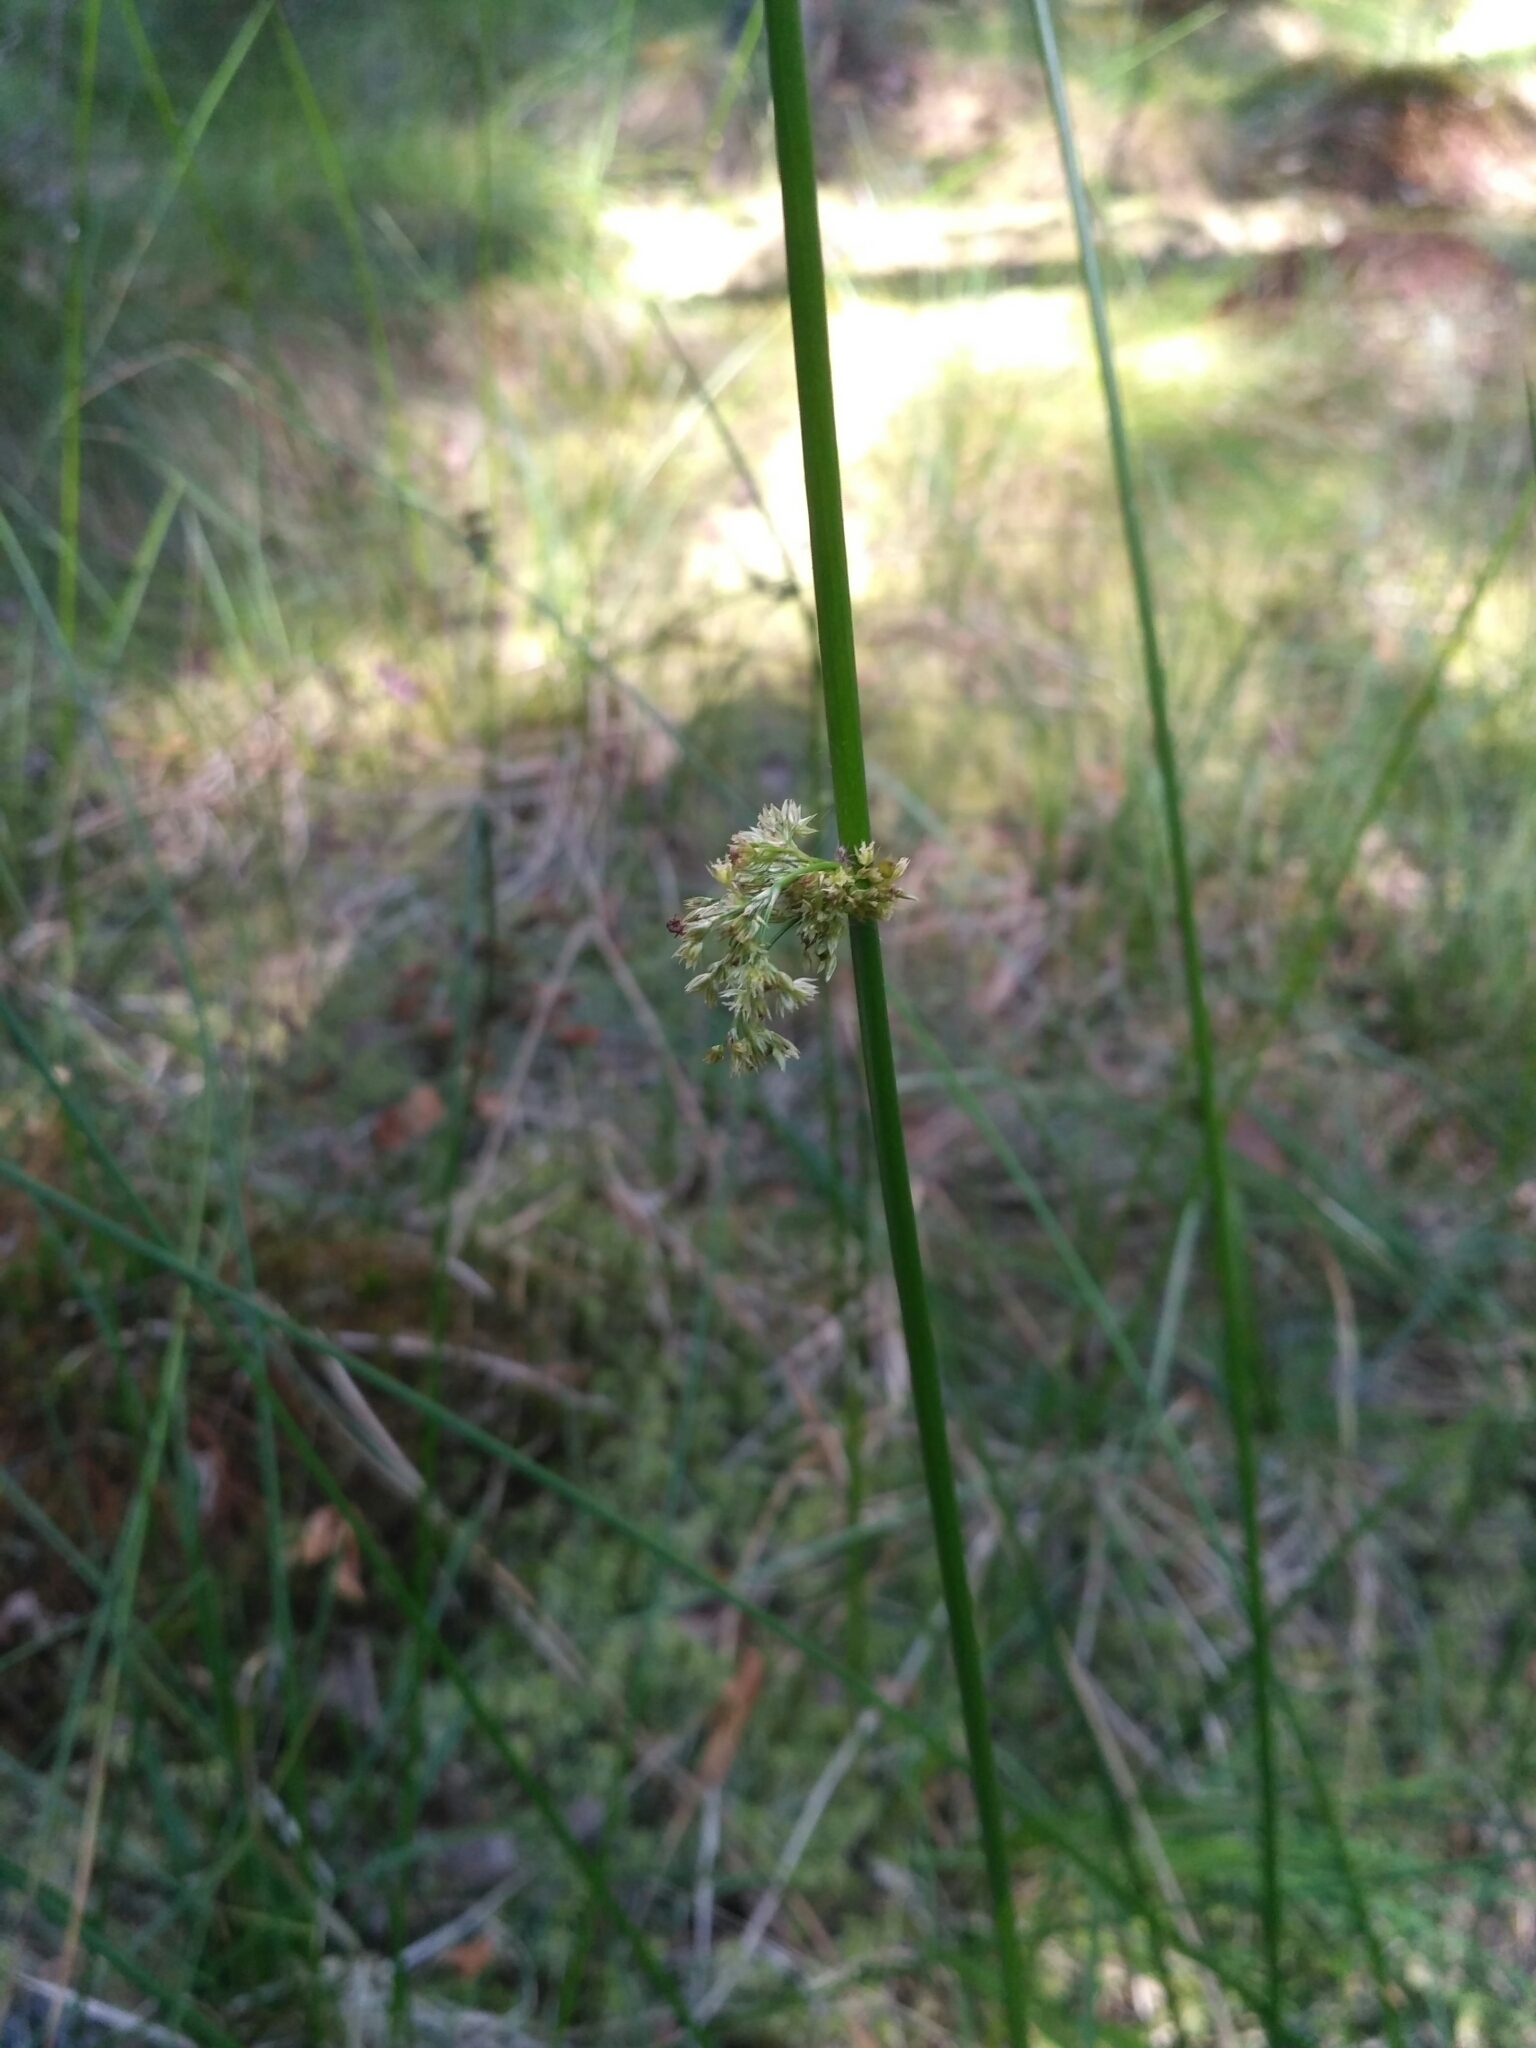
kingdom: Plantae
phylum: Tracheophyta
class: Liliopsida
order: Poales
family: Juncaceae
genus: Juncus
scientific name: Juncus effusus
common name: Soft rush
